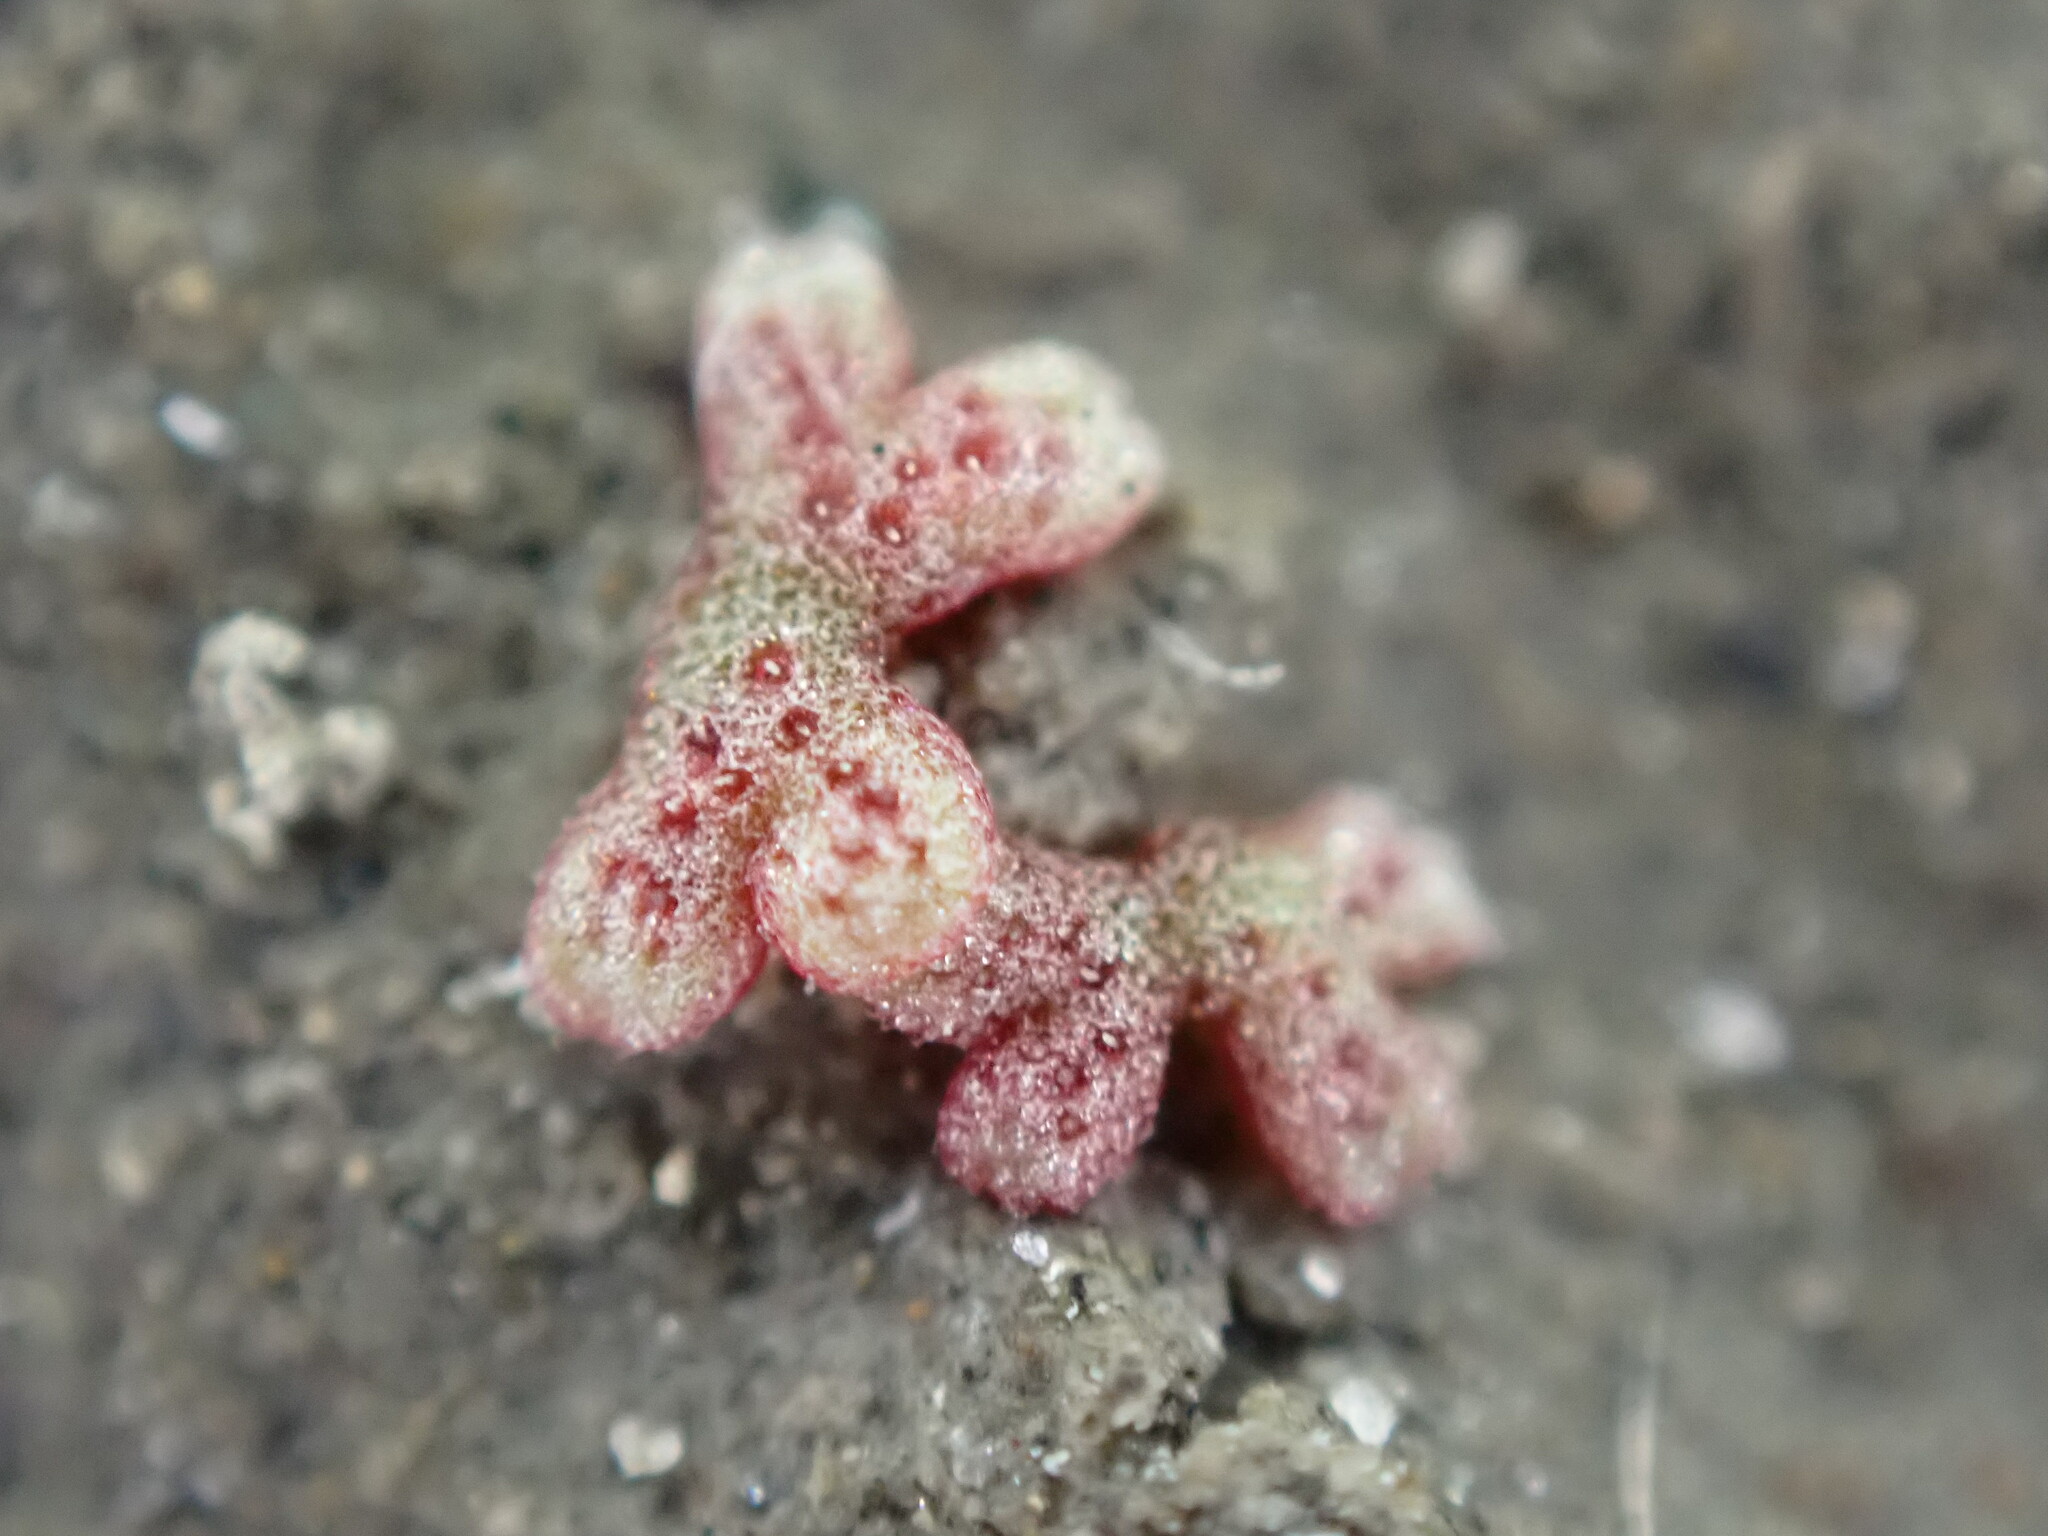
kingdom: Plantae
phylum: Marchantiophyta
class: Marchantiopsida
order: Marchantiales
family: Ricciaceae
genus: Riccia
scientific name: Riccia frostii
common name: Frost s crystalwort
